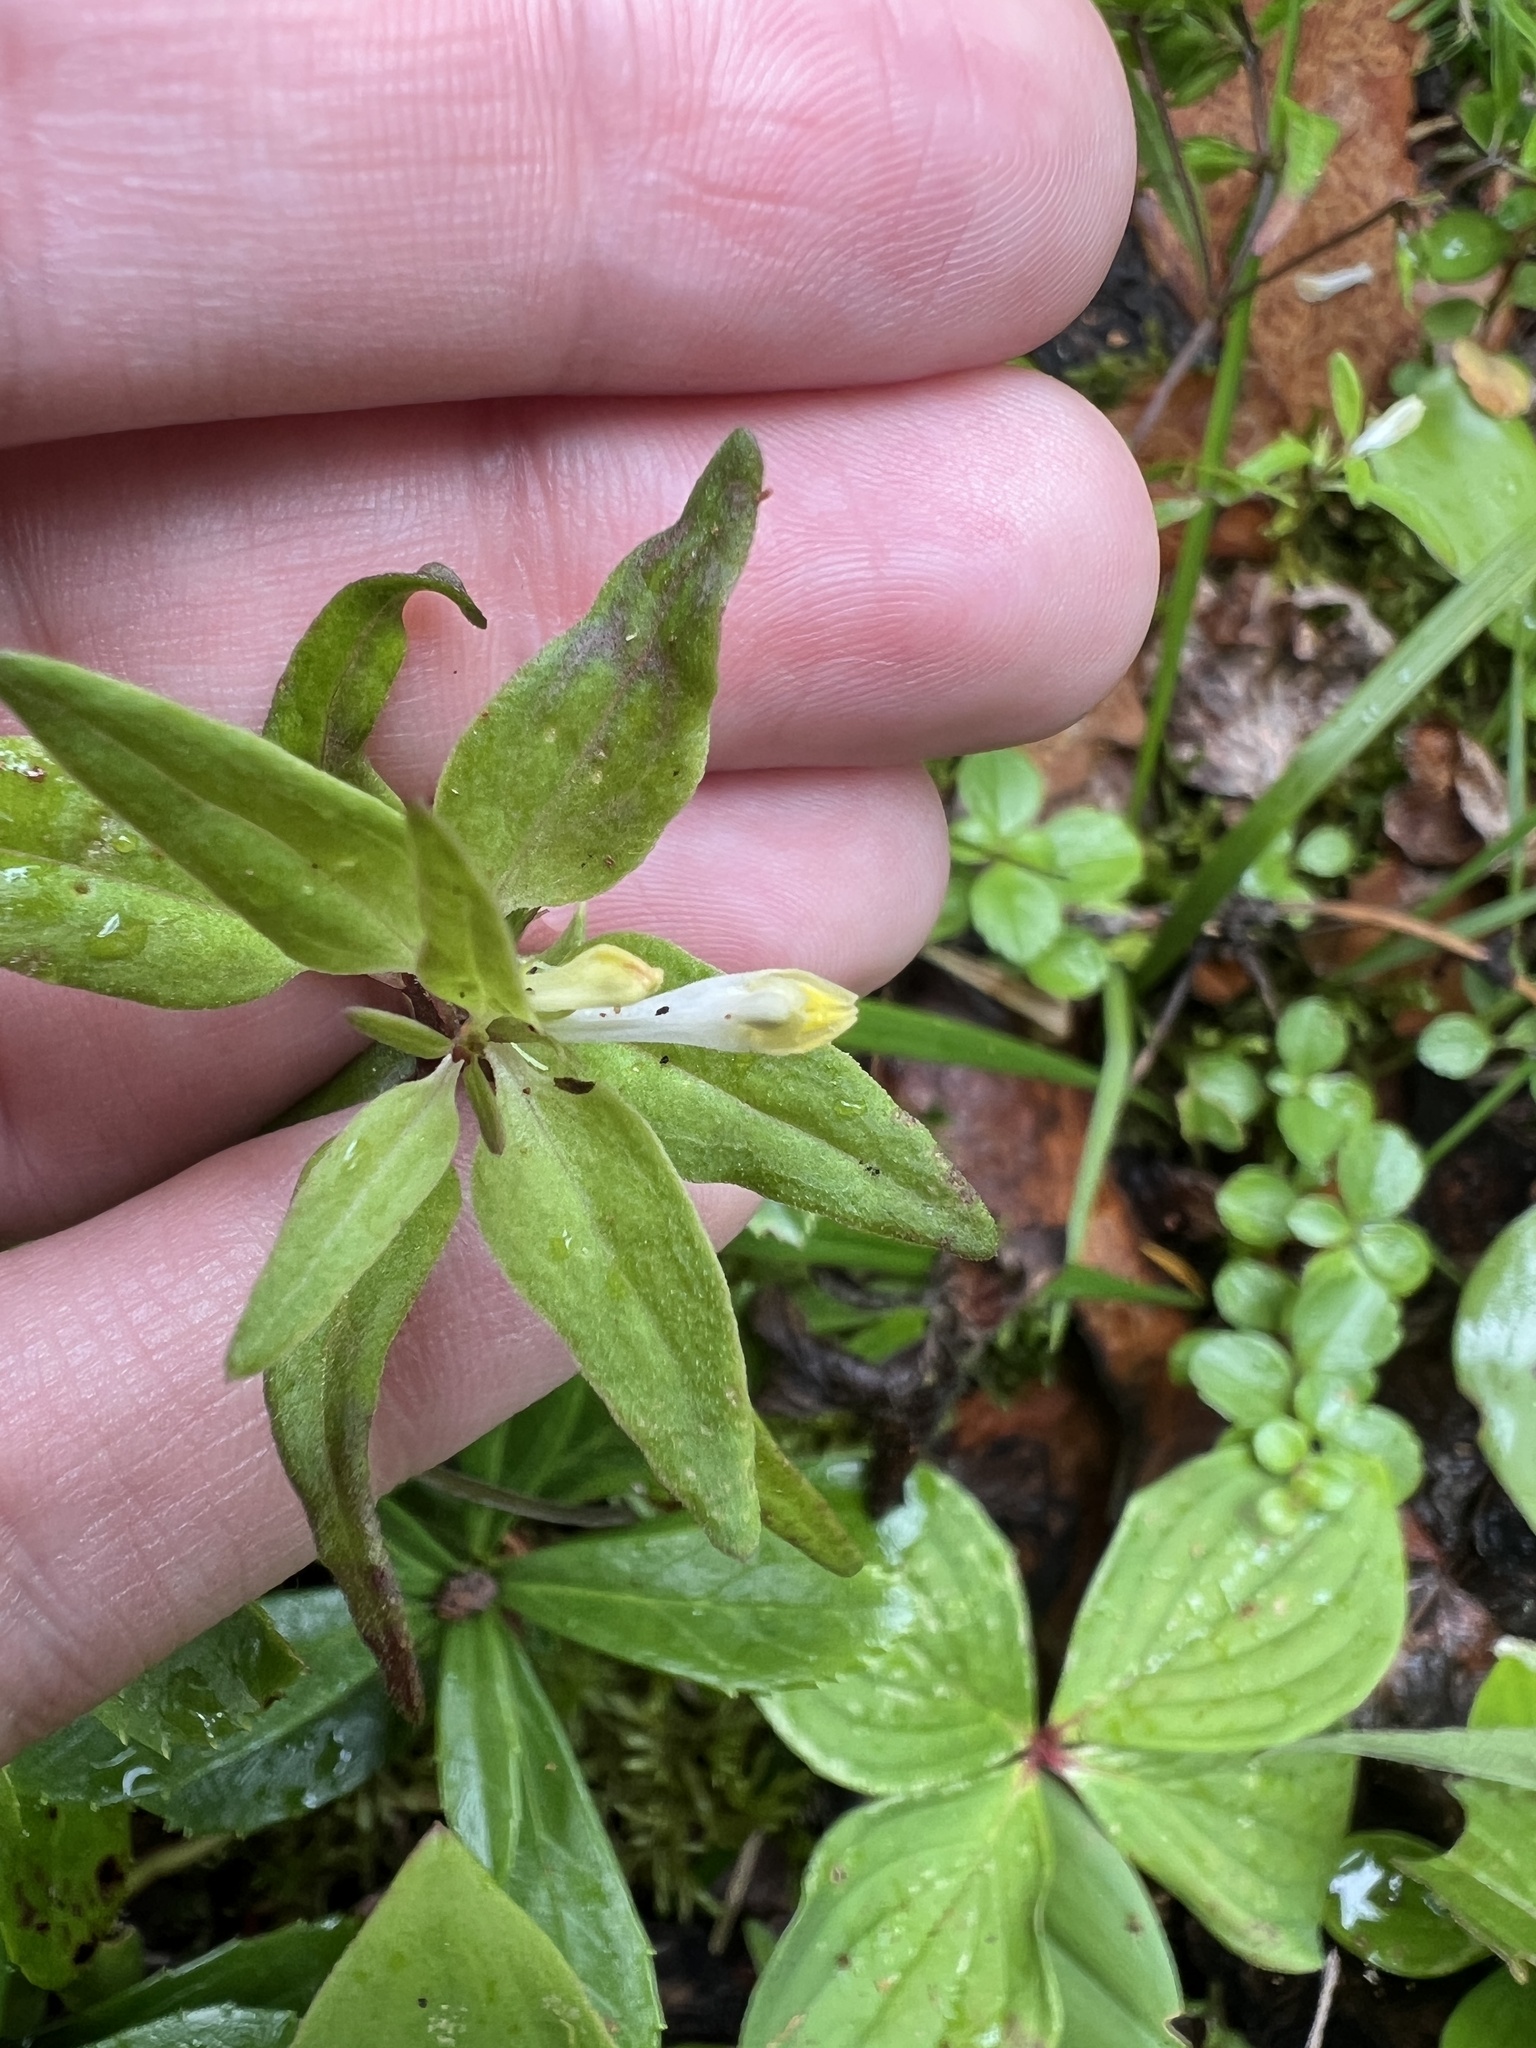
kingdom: Plantae
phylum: Tracheophyta
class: Magnoliopsida
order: Lamiales
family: Orobanchaceae
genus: Melampyrum
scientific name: Melampyrum lineare
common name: American cow-wheat
